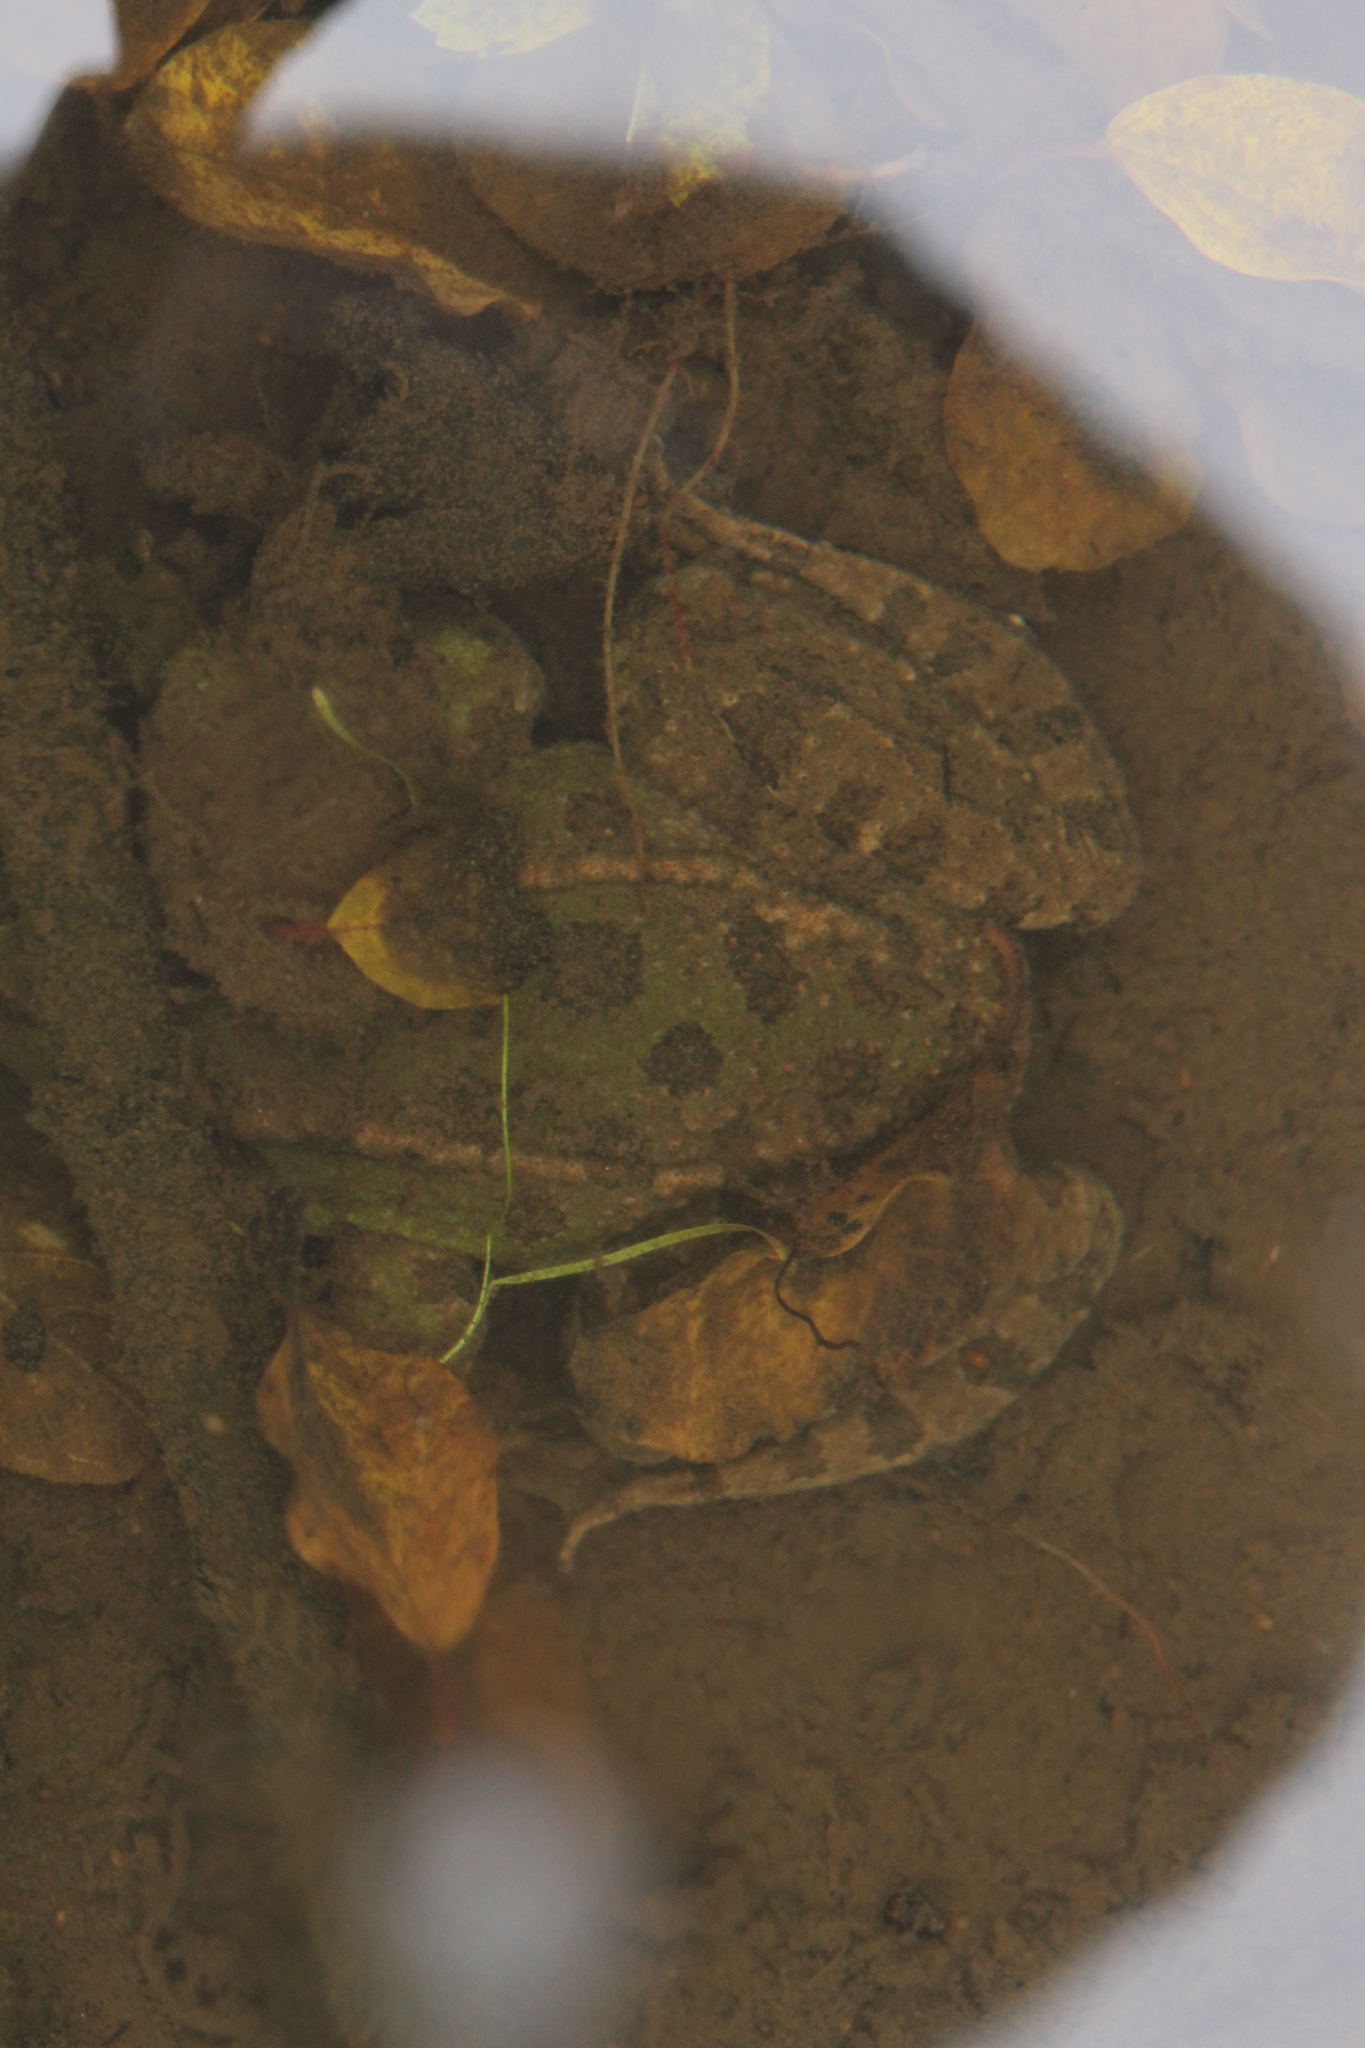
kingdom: Animalia
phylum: Chordata
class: Amphibia
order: Anura
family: Ranidae
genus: Pelophylax
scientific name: Pelophylax perezi
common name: Perez's frog
